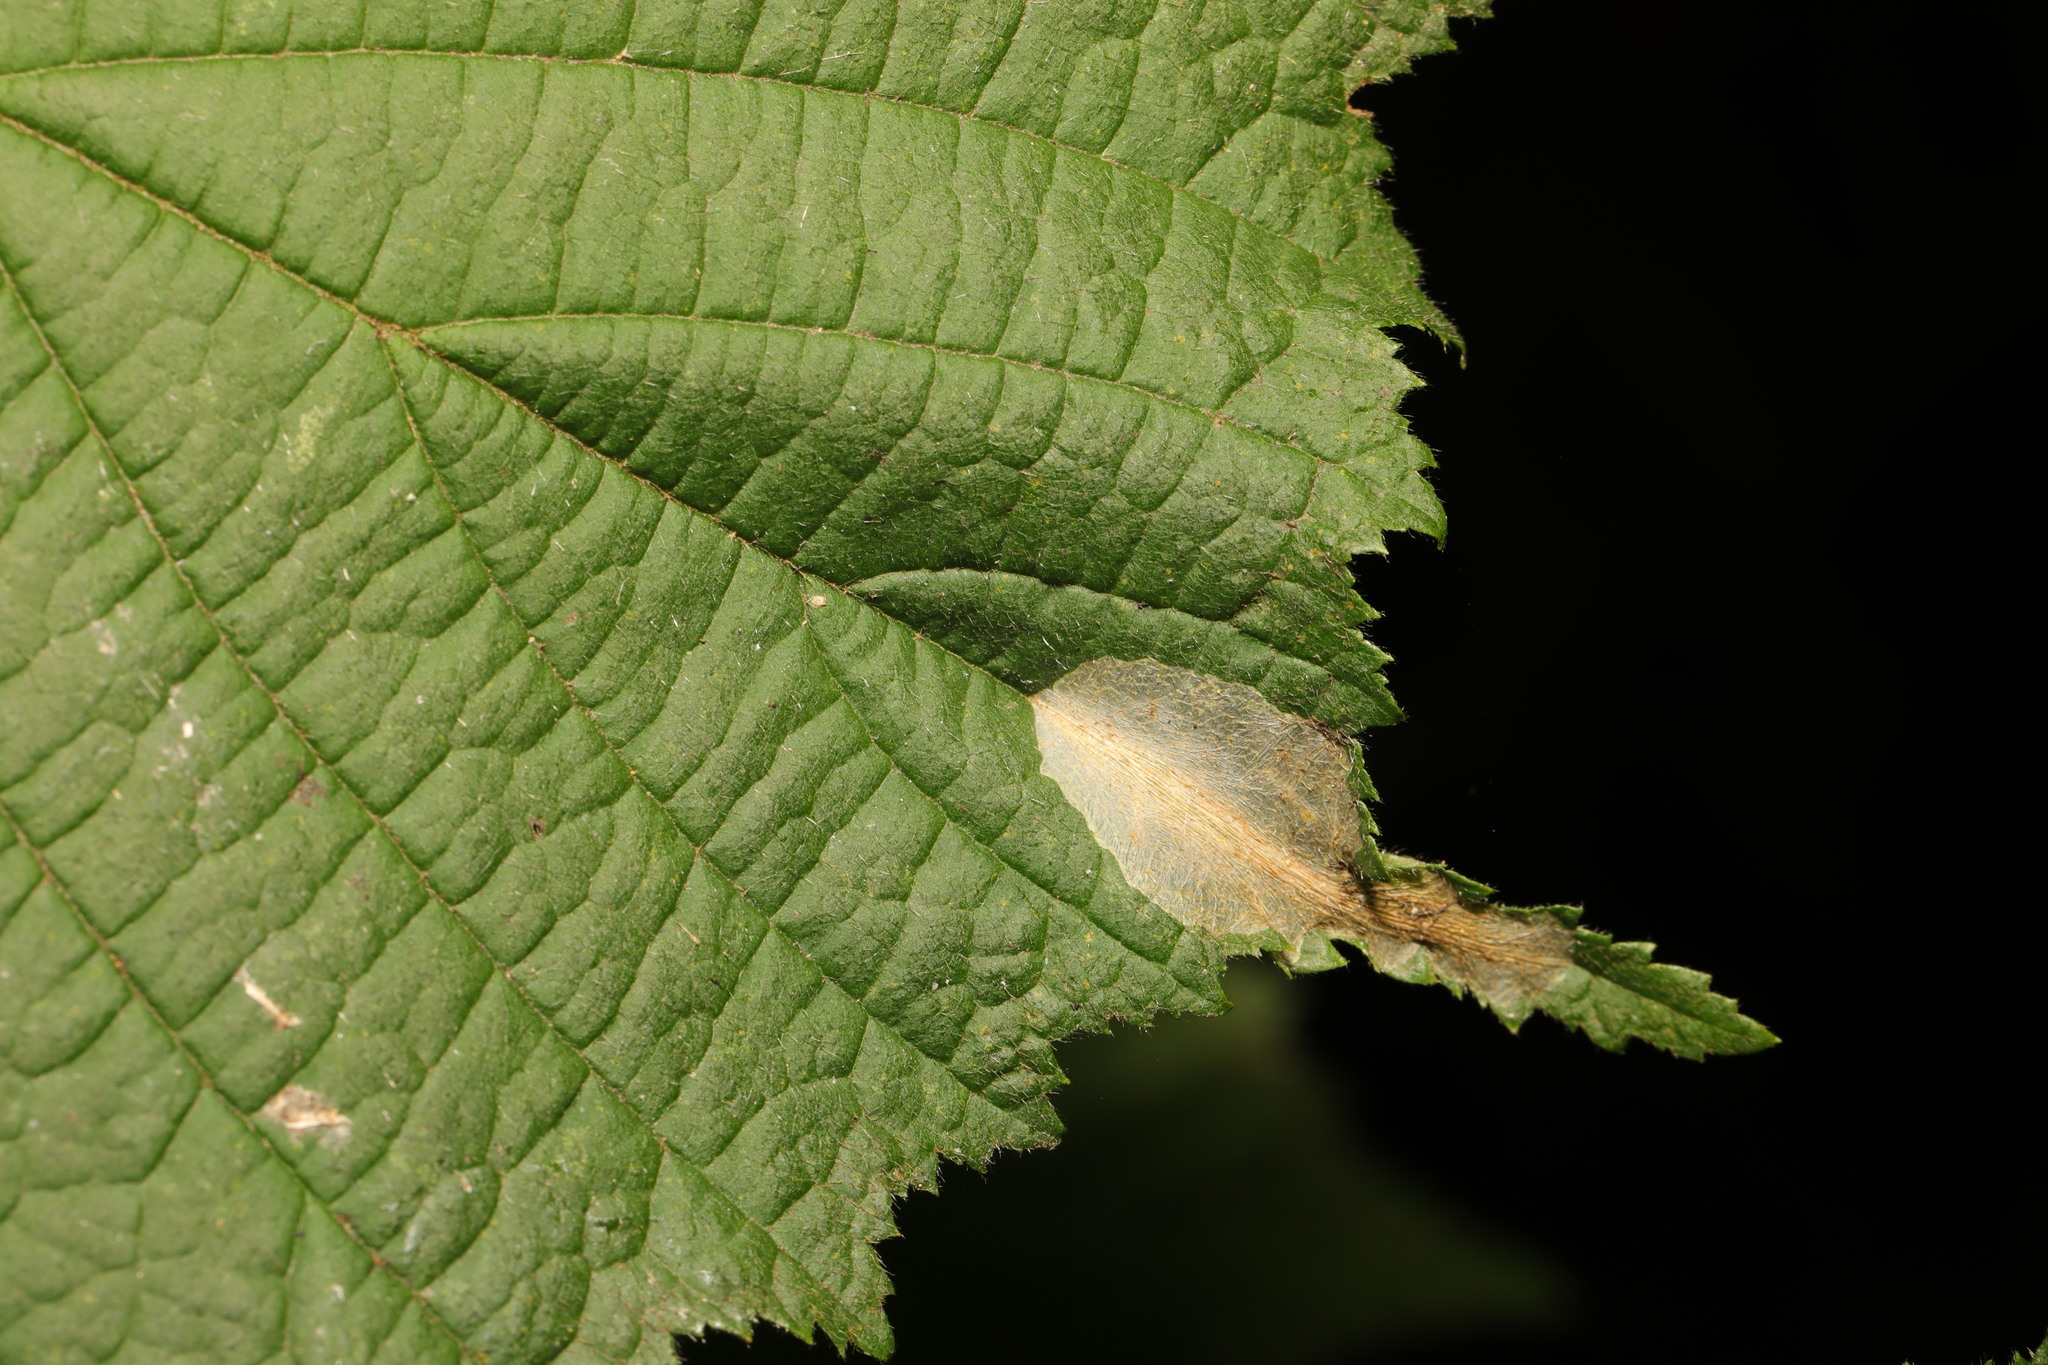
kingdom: Animalia
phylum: Arthropoda
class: Insecta
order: Lepidoptera
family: Gracillariidae
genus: Phyllonorycter
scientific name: Phyllonorycter coryli
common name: Nut-leaf blister moth
